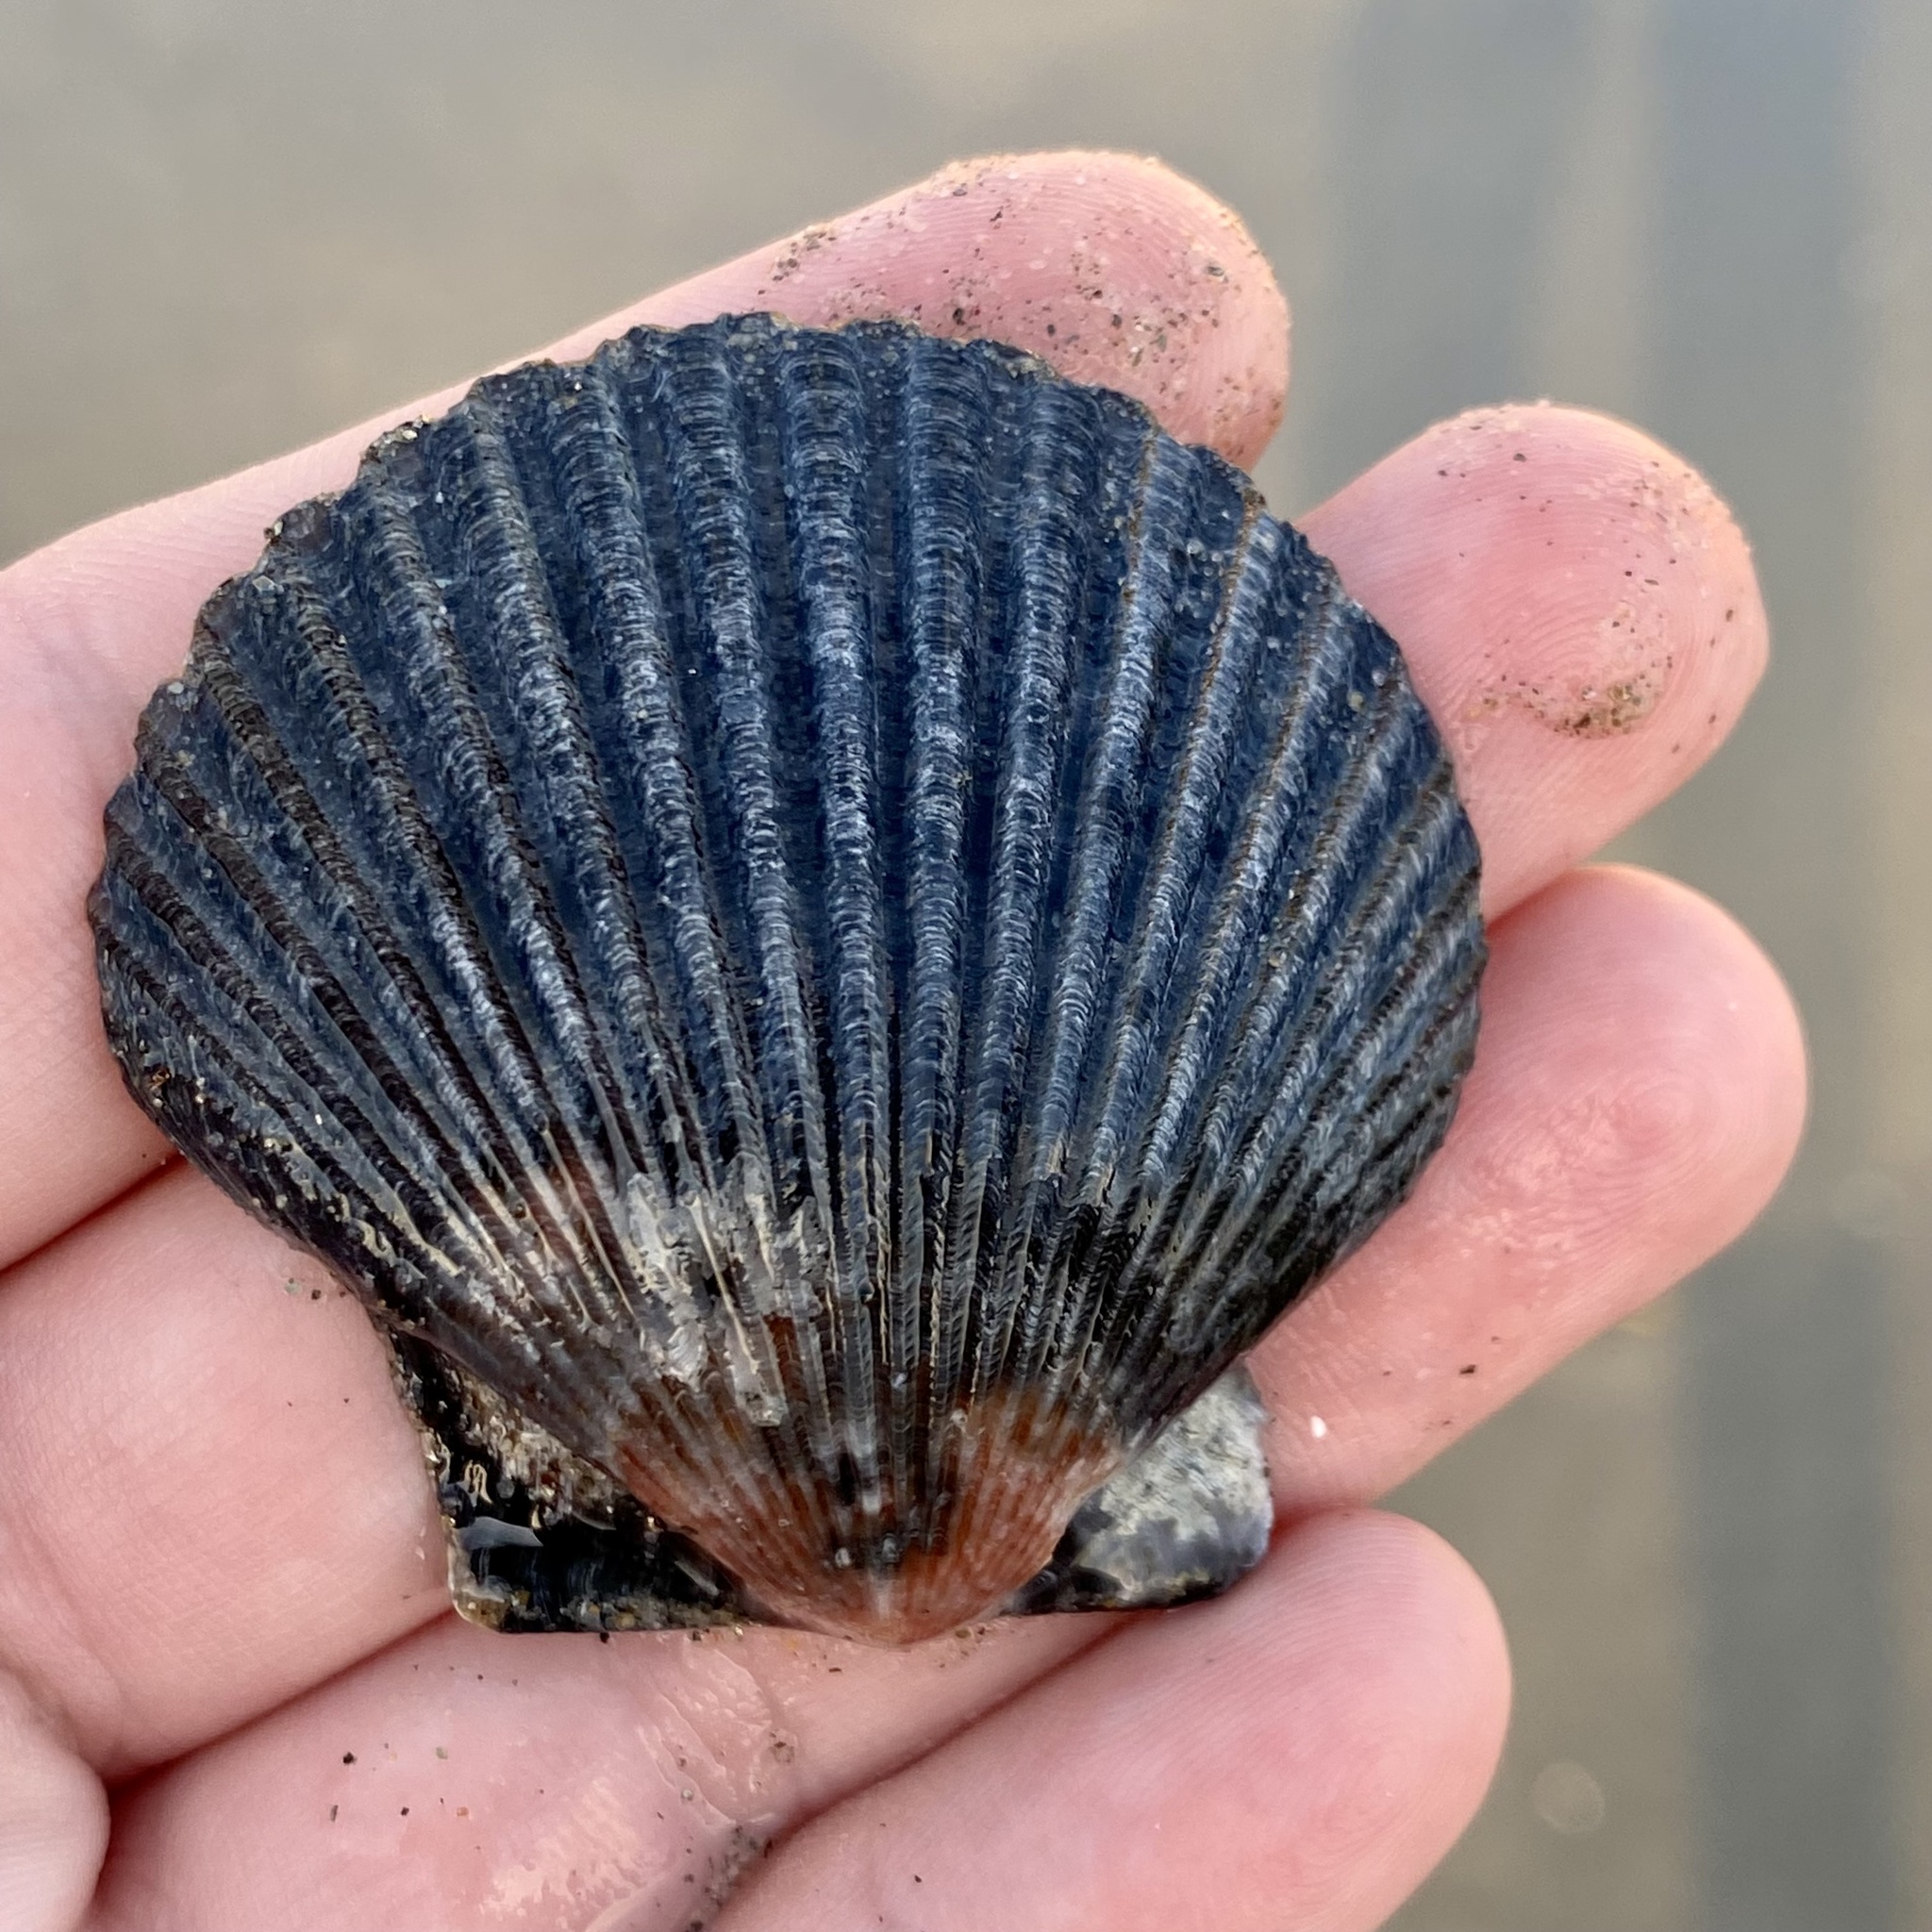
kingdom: Animalia
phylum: Mollusca
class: Bivalvia
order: Pectinida
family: Pectinidae
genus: Argopecten
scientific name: Argopecten ventricosus
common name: Catarina scallop
